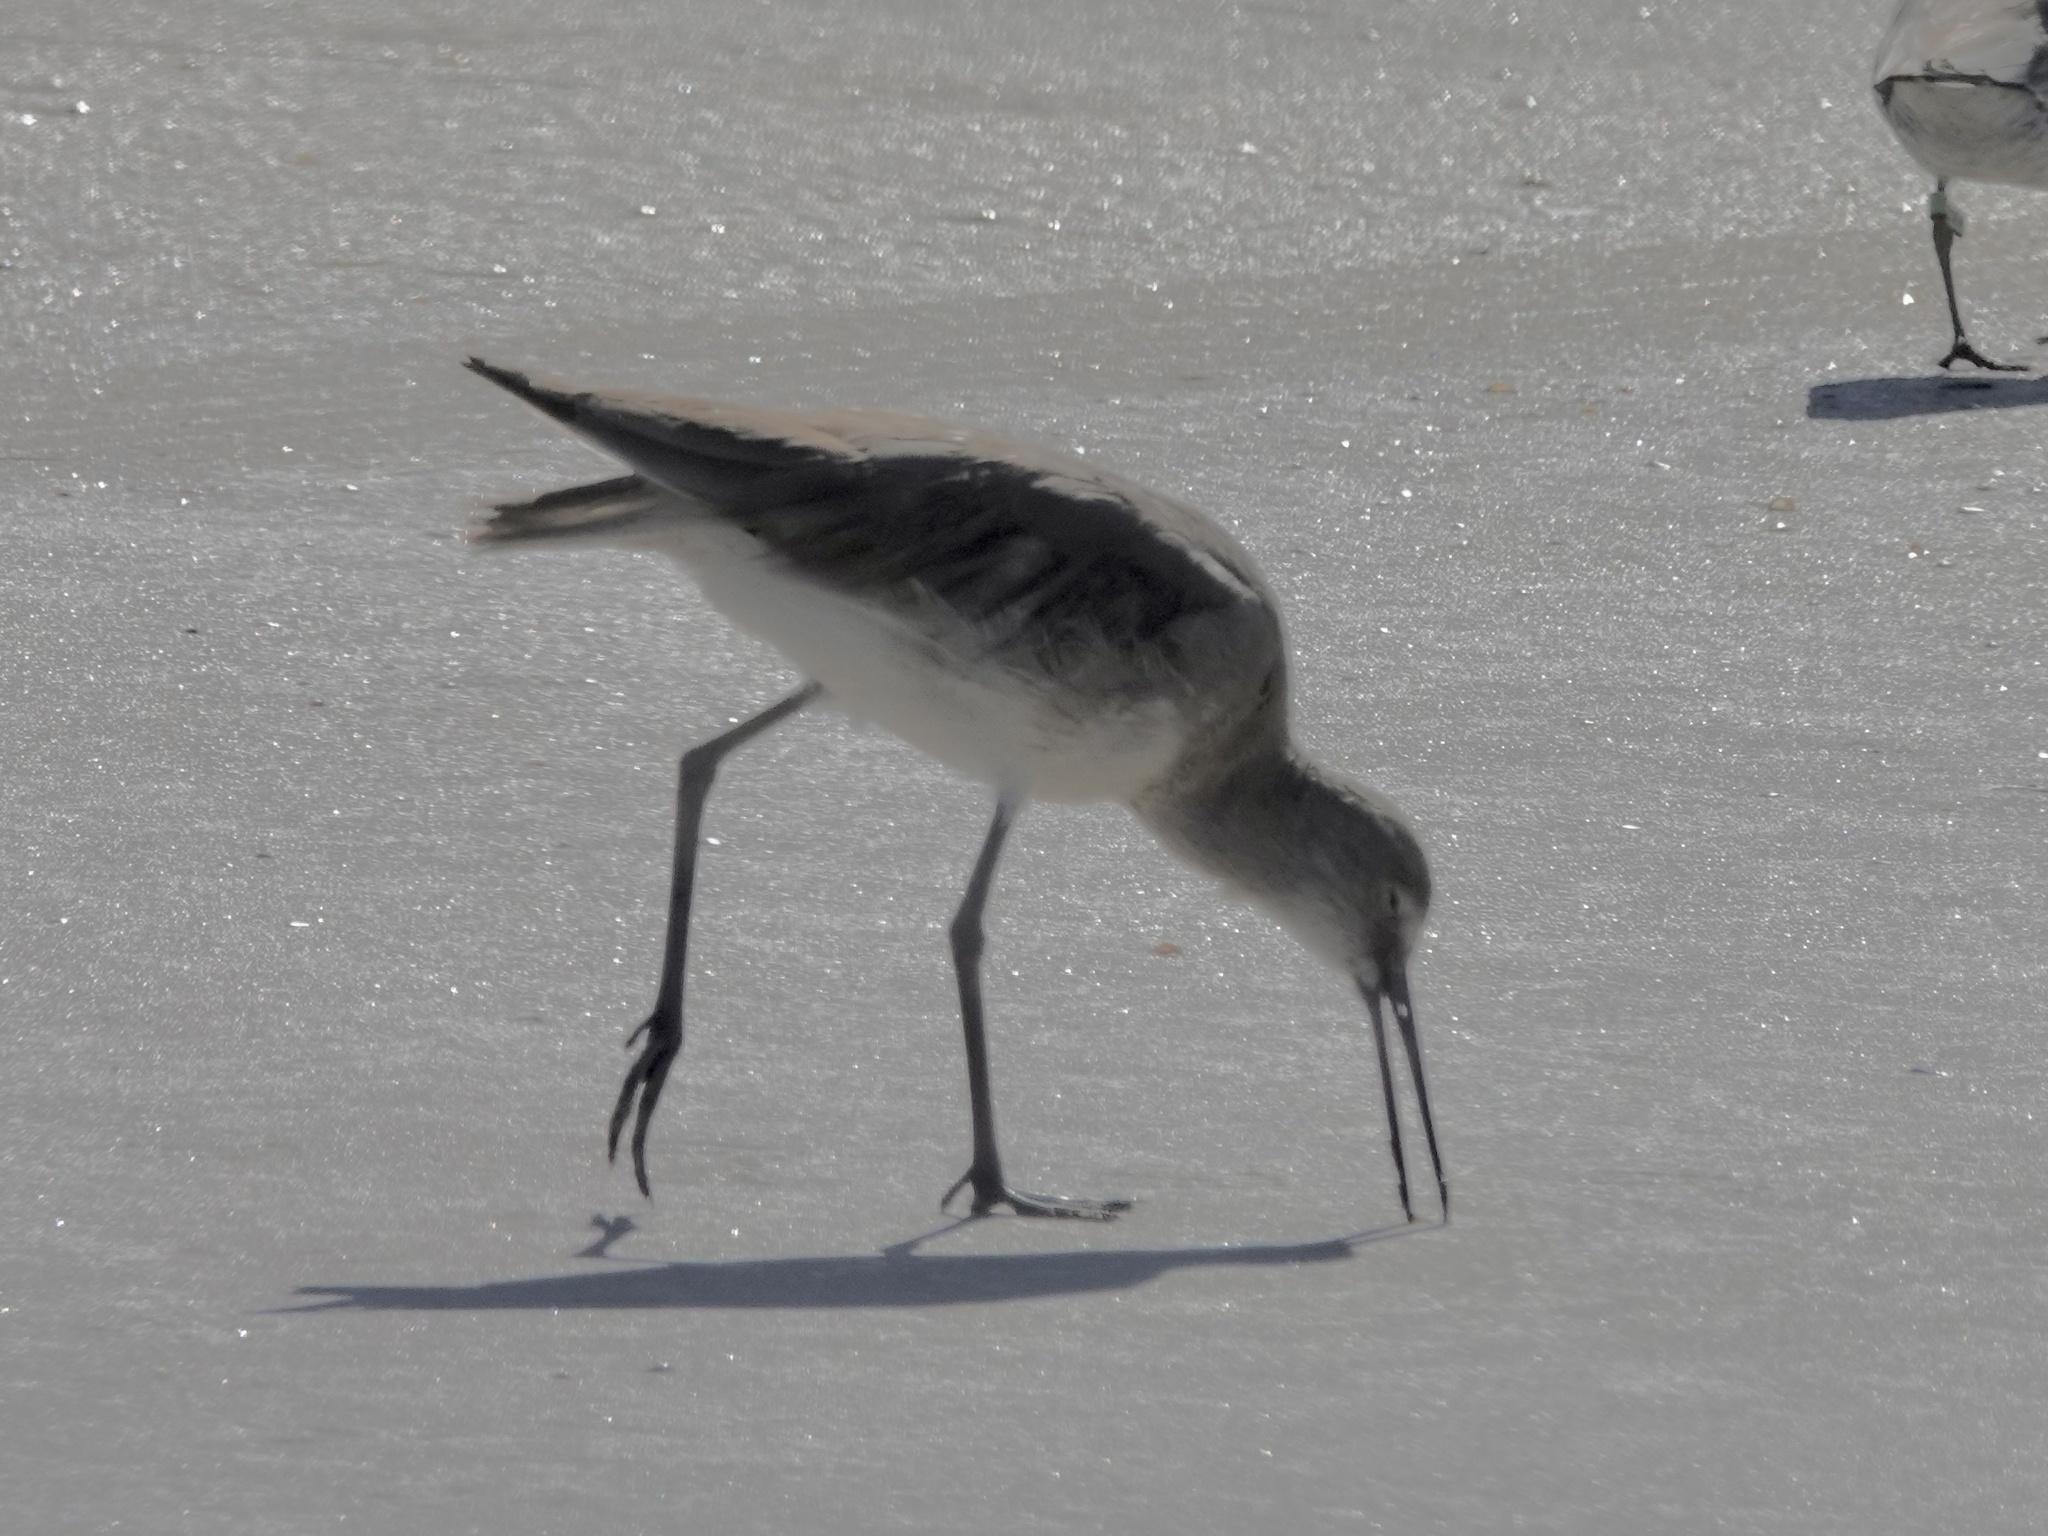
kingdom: Animalia
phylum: Chordata
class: Aves
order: Charadriiformes
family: Scolopacidae
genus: Tringa
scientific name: Tringa semipalmata
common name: Willet
